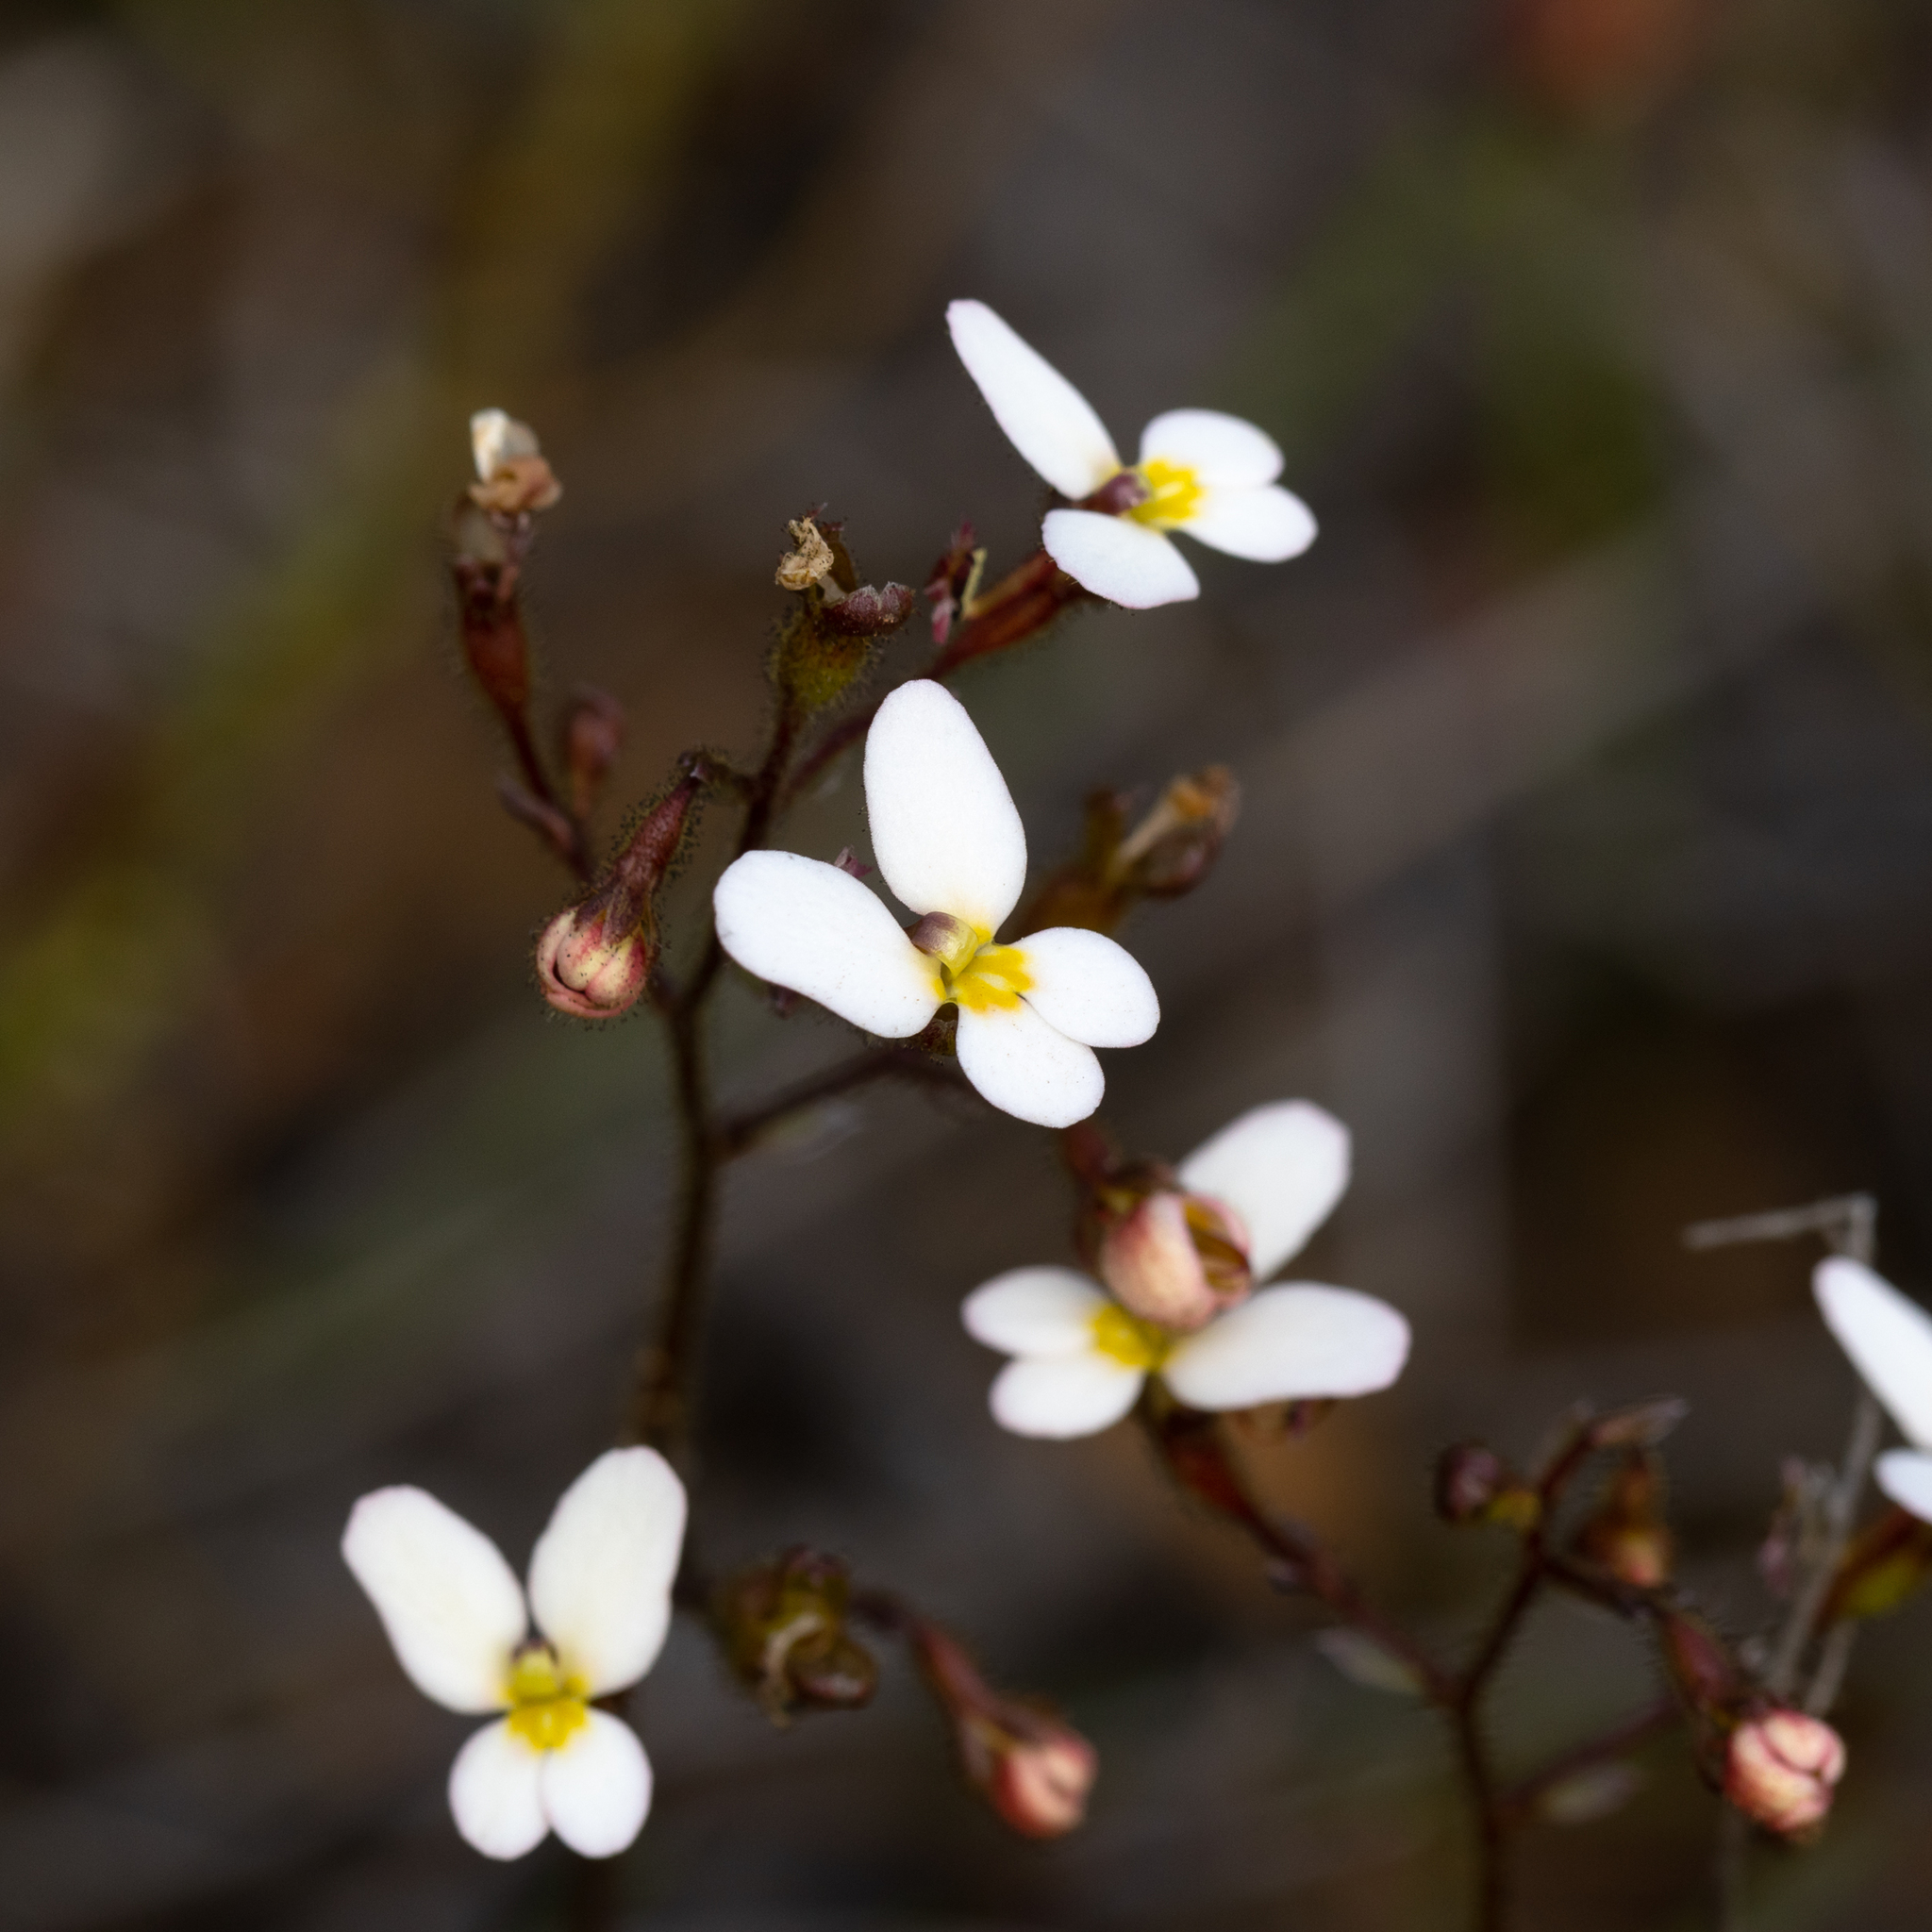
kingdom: Plantae
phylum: Tracheophyta
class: Magnoliopsida
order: Asterales
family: Stylidiaceae
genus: Stylidium
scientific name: Stylidium piliferum
